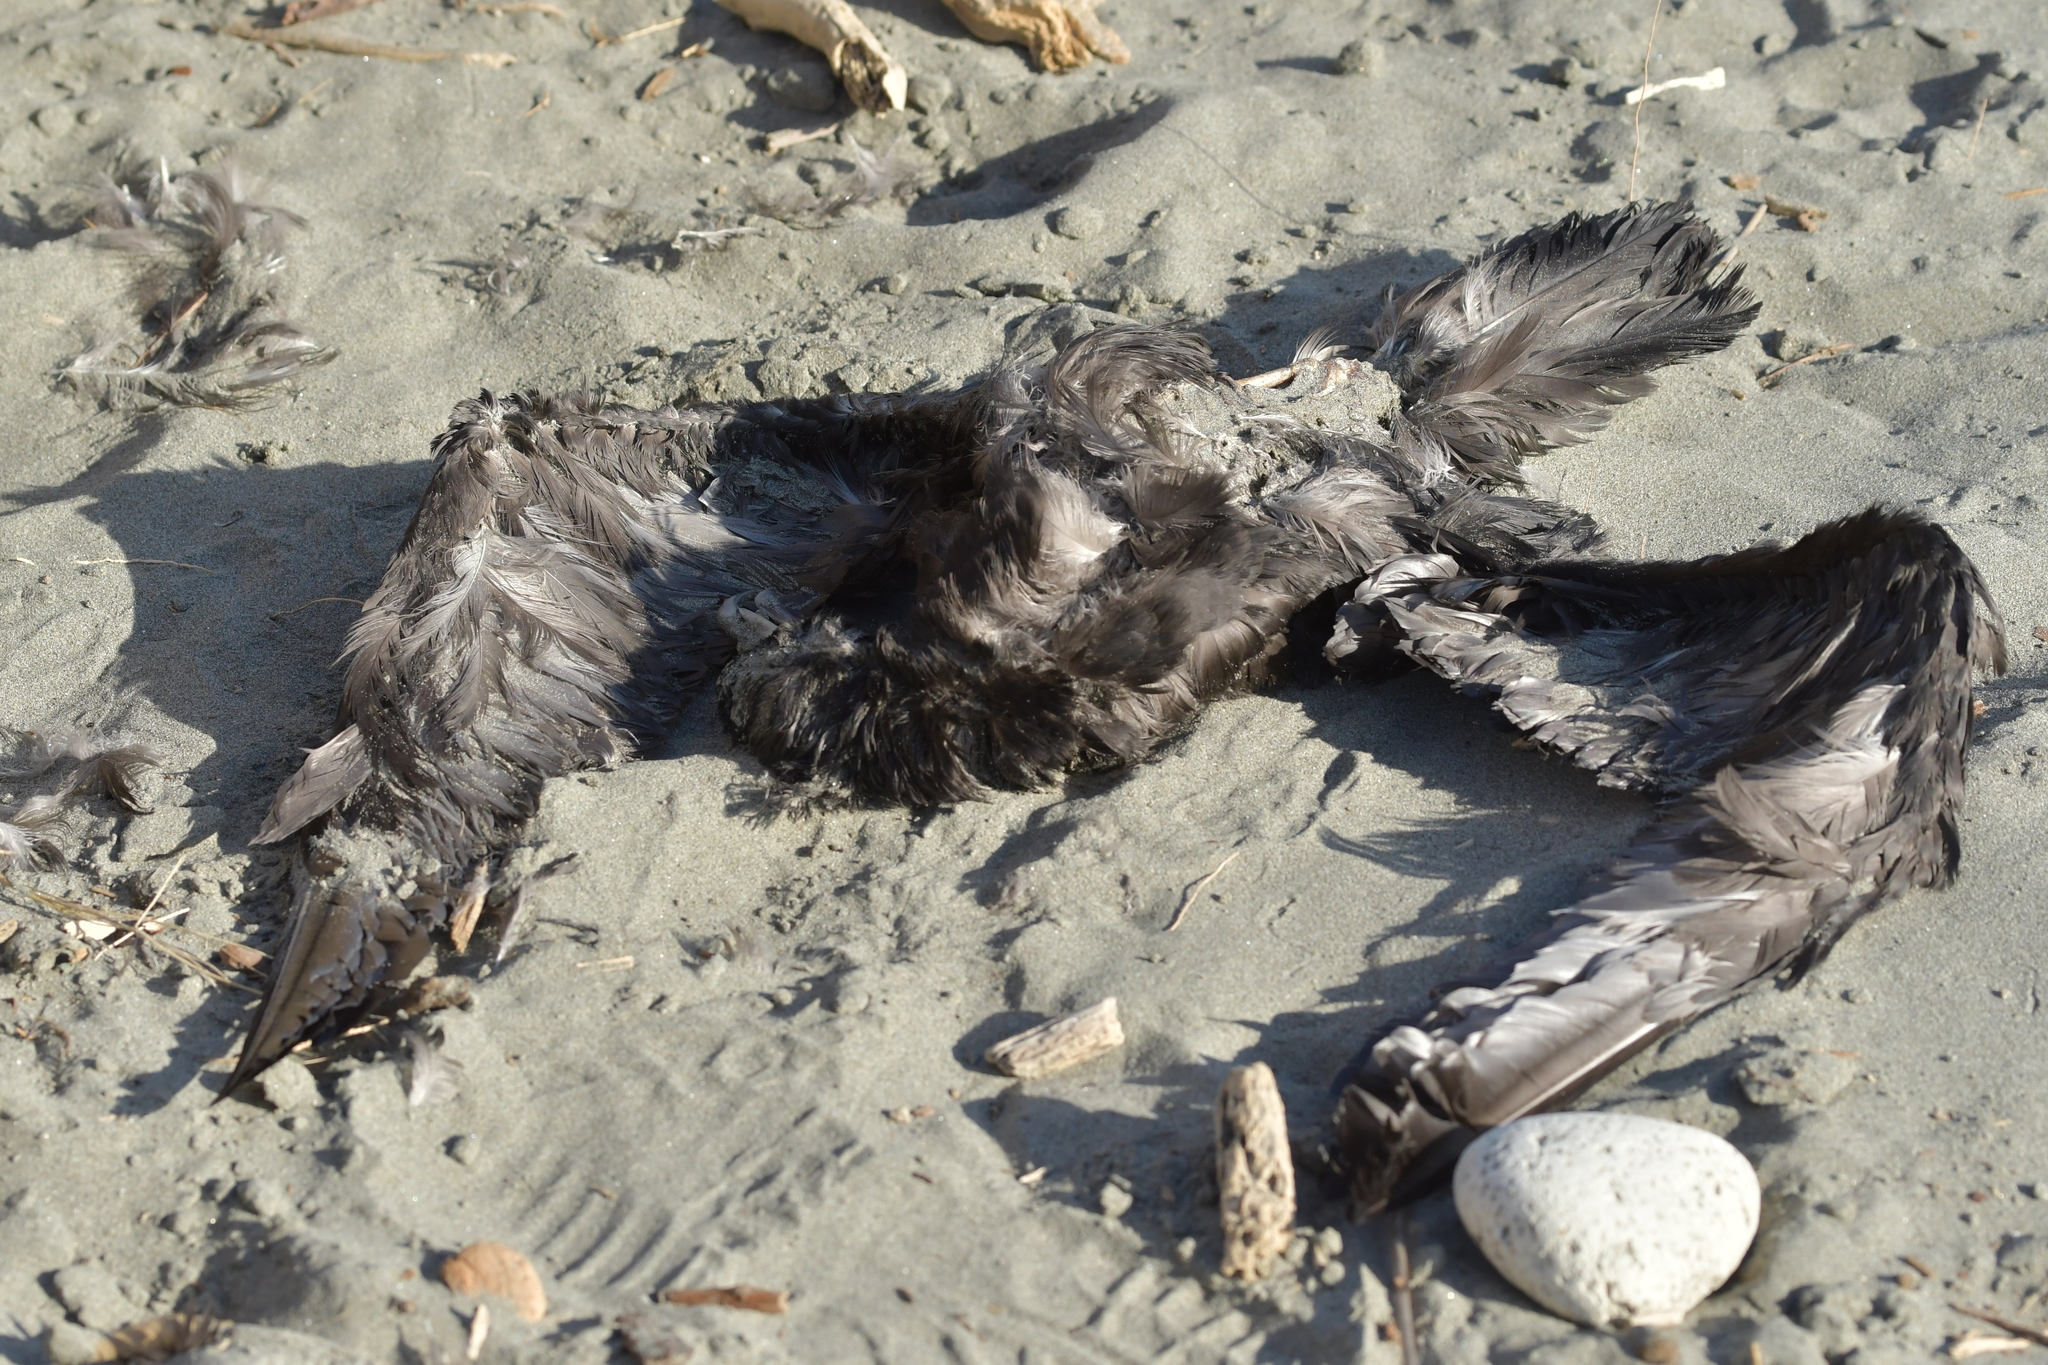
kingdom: Animalia
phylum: Chordata
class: Aves
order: Procellariiformes
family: Procellariidae
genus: Procellaria
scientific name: Procellaria aequinoctialis
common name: White-chinned petrel
